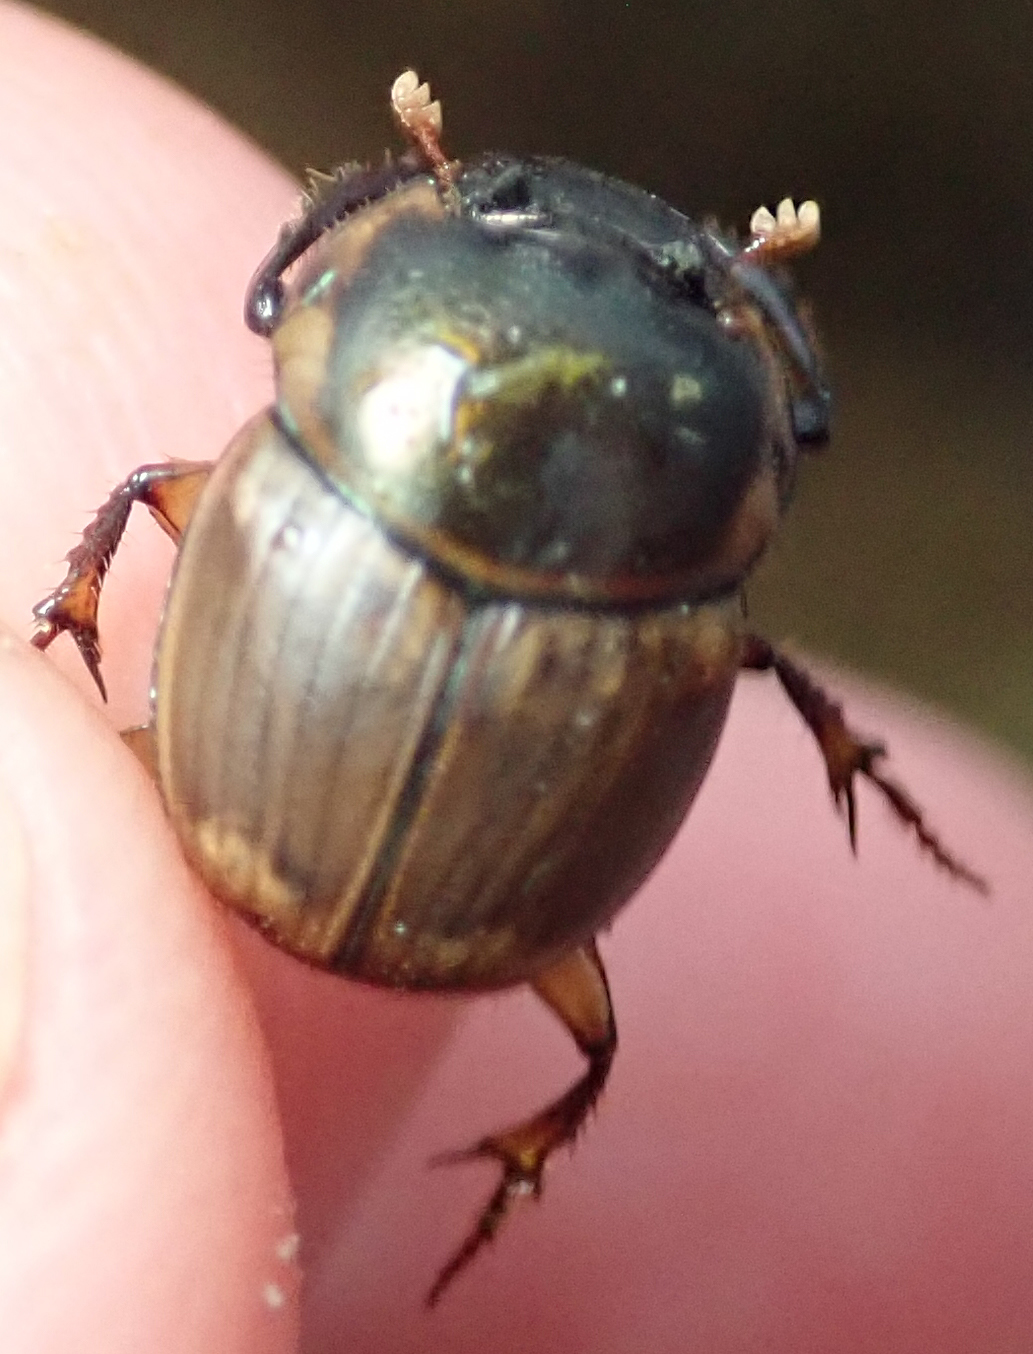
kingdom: Animalia
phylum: Arthropoda
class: Insecta
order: Coleoptera
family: Scarabaeidae
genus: Digitonthophagus
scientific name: Digitonthophagus gazella
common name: Brown dung beetle
